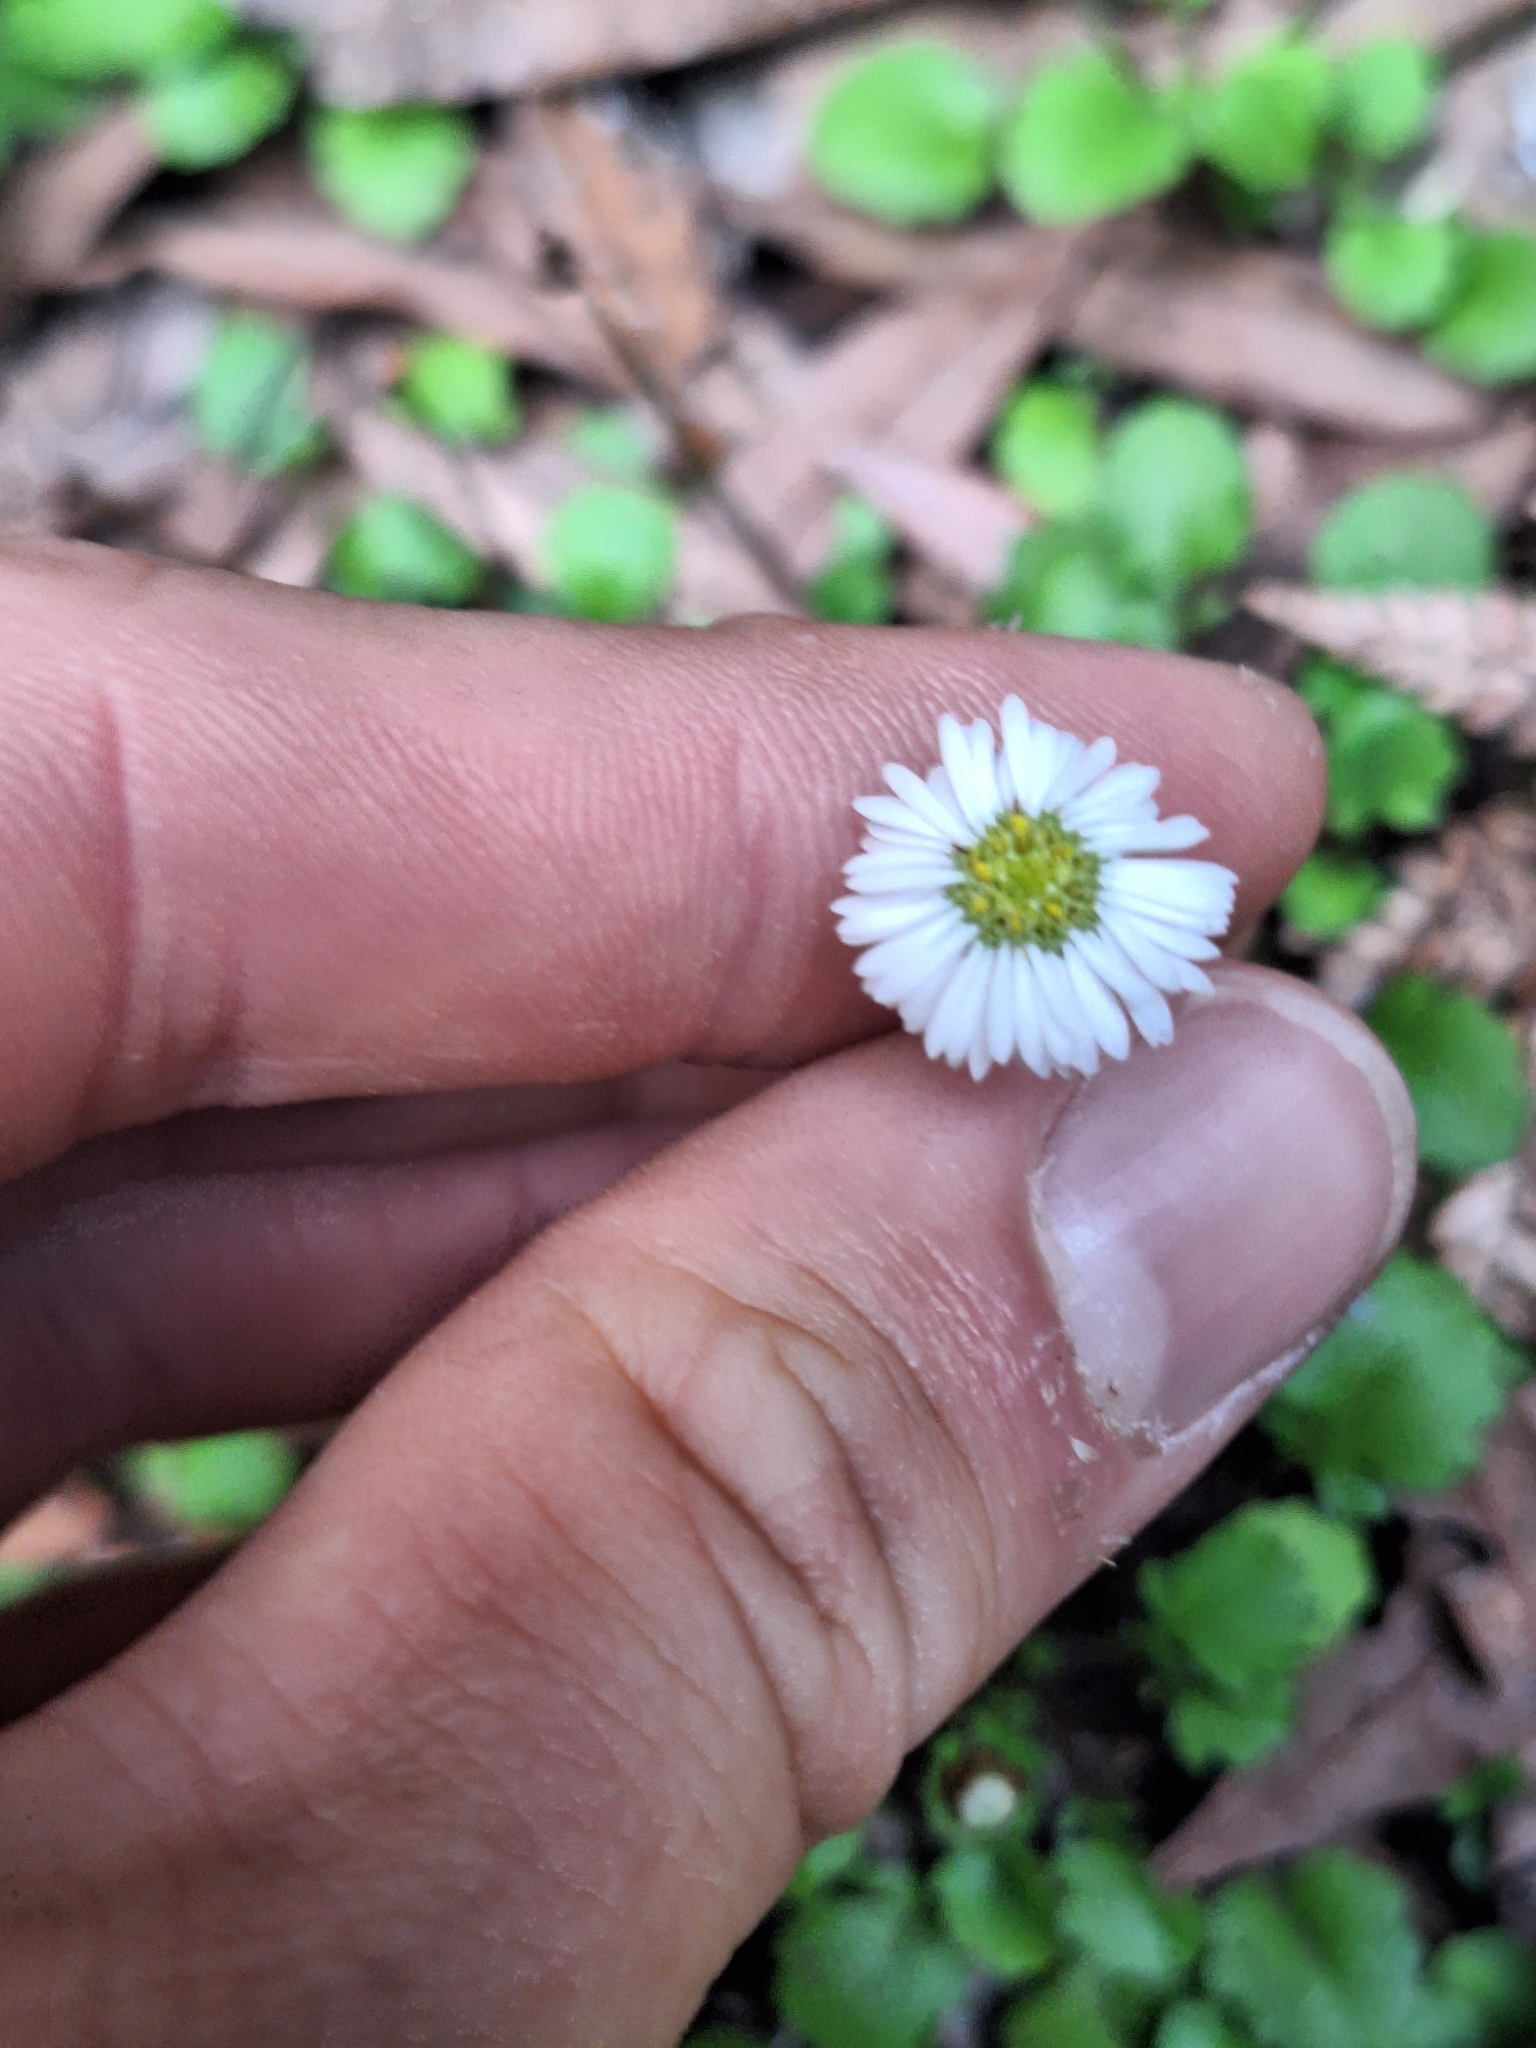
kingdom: Plantae
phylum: Tracheophyta
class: Magnoliopsida
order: Asterales
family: Asteraceae
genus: Lagenophora
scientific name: Lagenophora pumila
